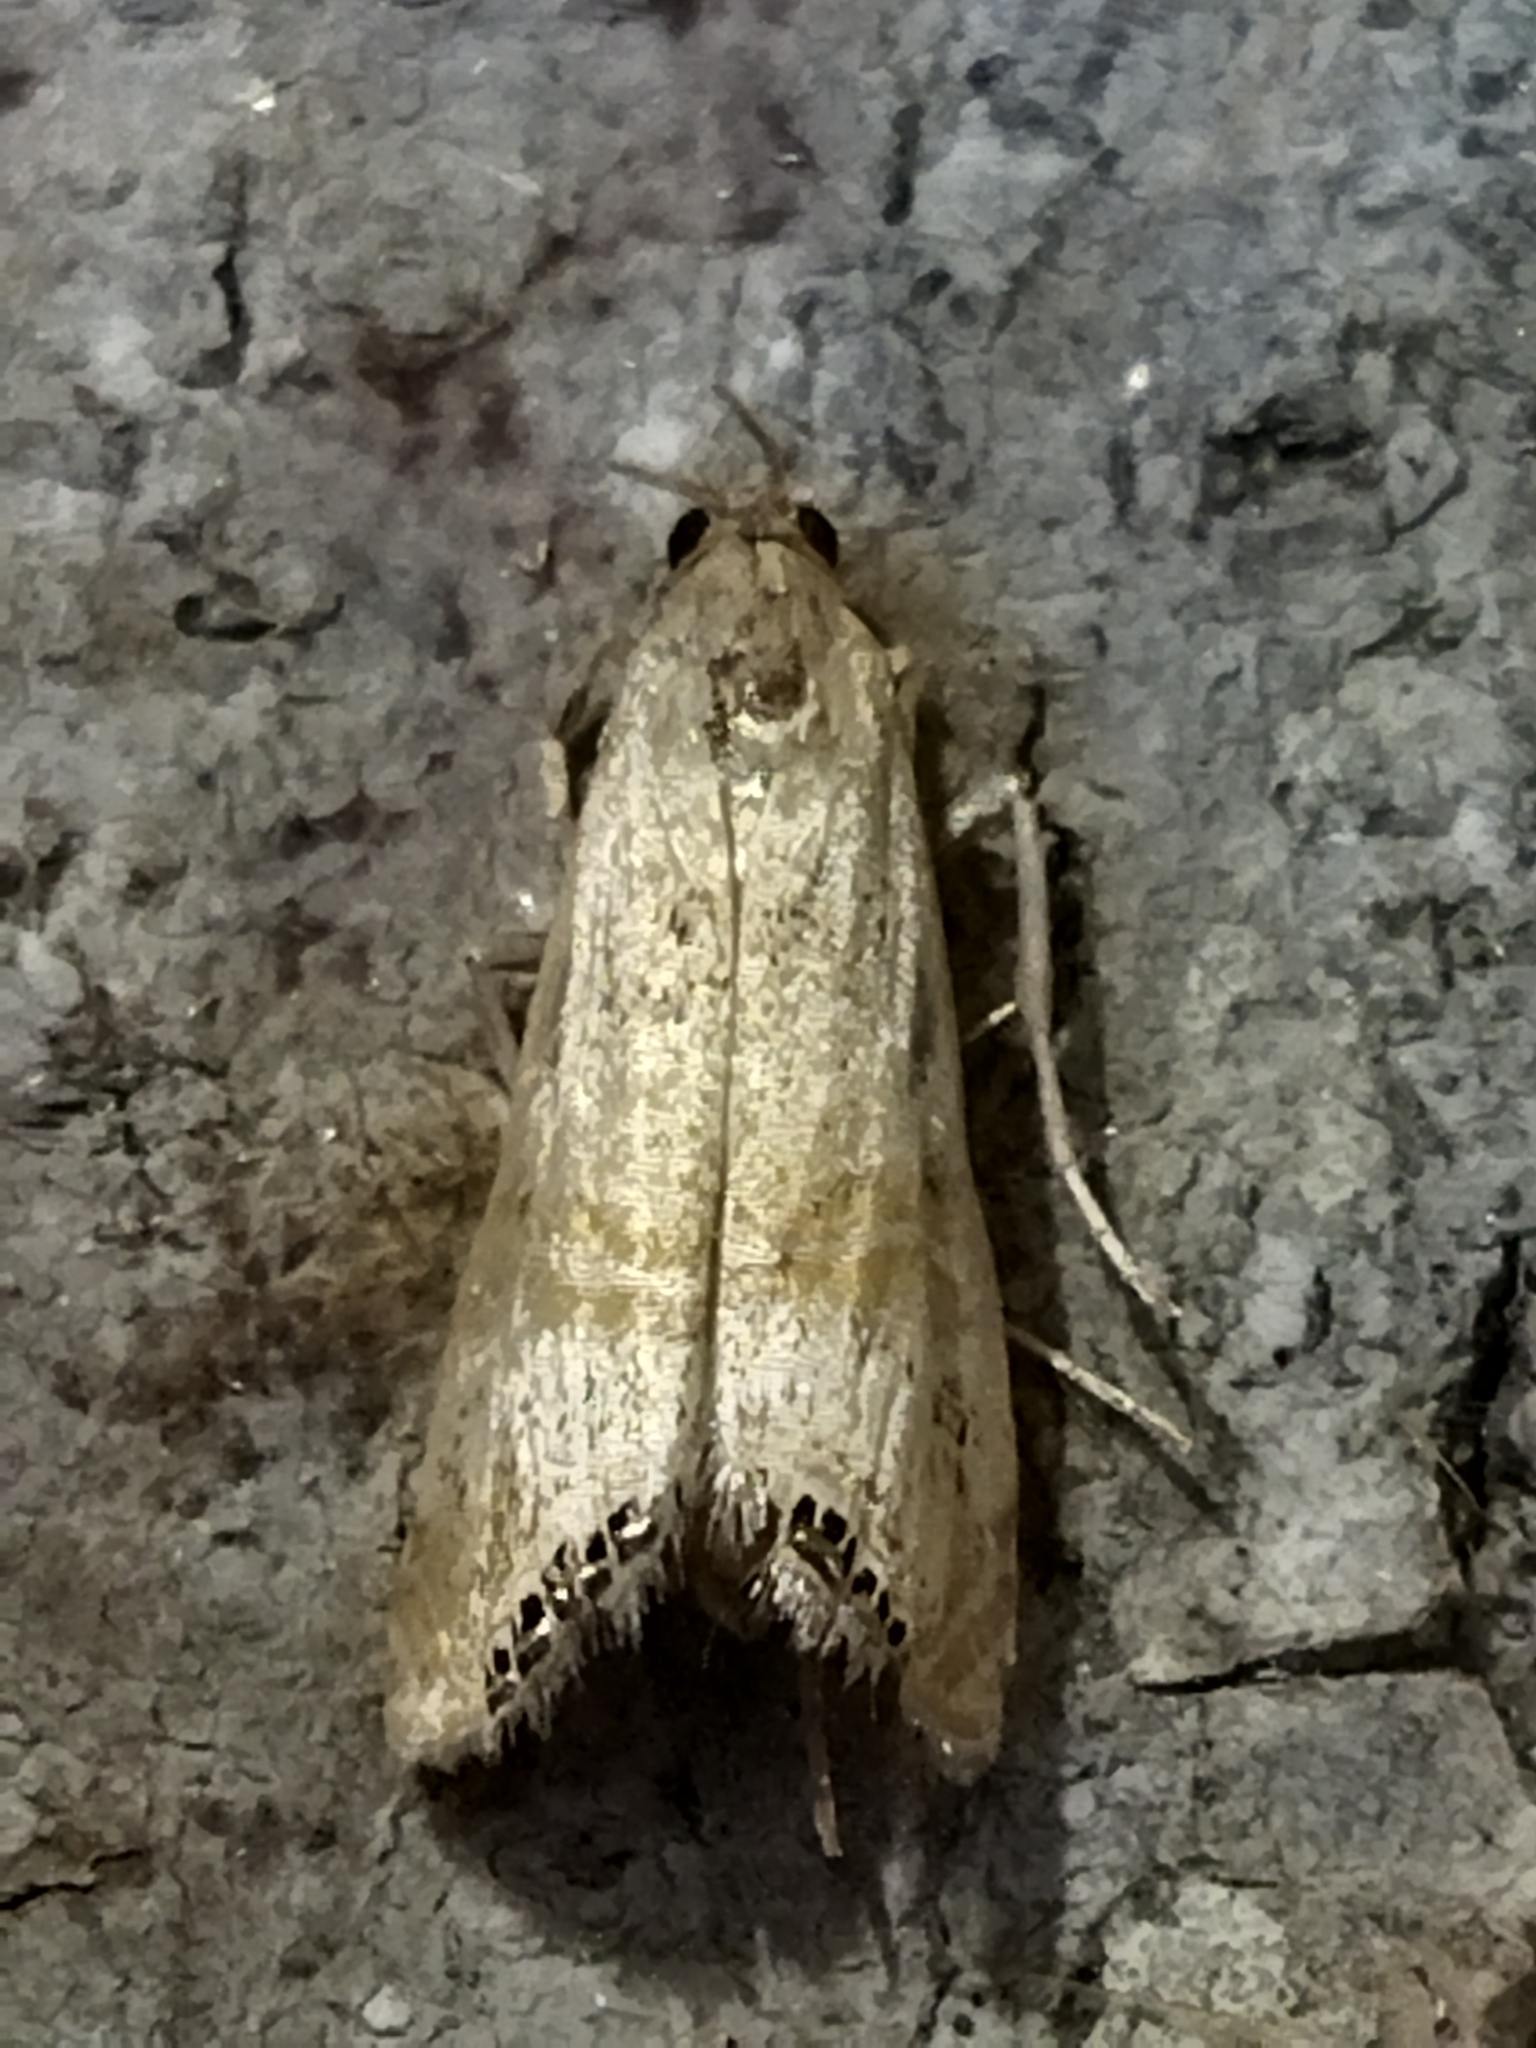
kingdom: Animalia
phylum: Arthropoda
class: Insecta
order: Lepidoptera
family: Crambidae
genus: Euchromius
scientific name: Euchromius ocellea
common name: Necklace veneer moth
